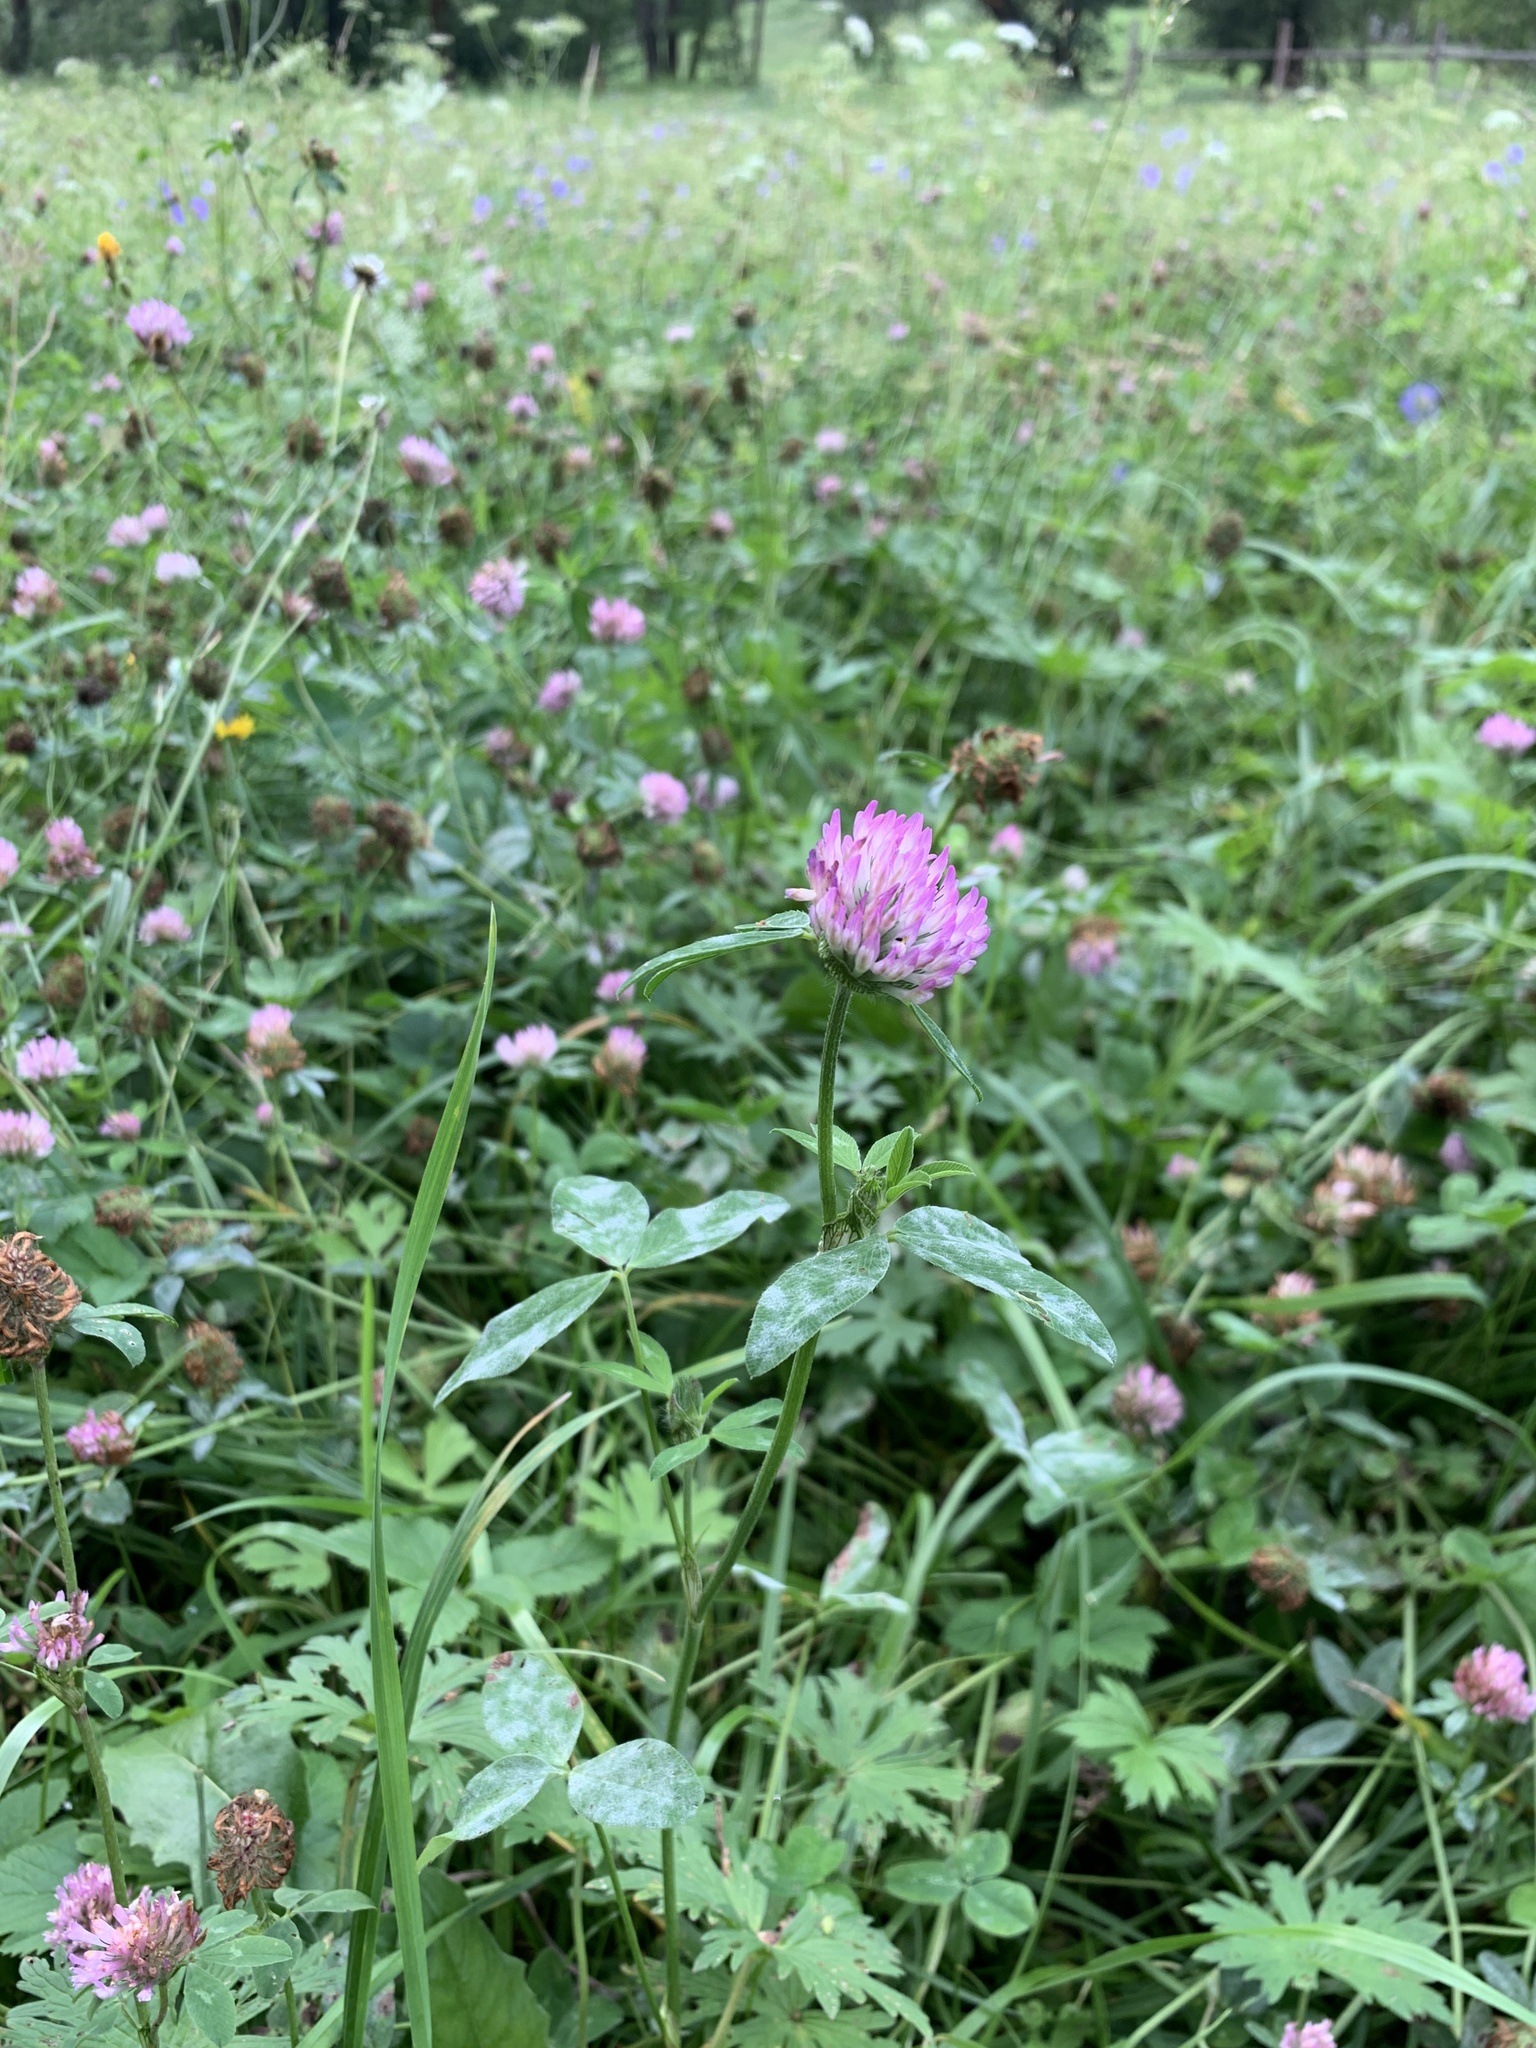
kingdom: Plantae
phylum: Tracheophyta
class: Magnoliopsida
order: Fabales
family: Fabaceae
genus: Trifolium
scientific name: Trifolium pratense
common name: Red clover
